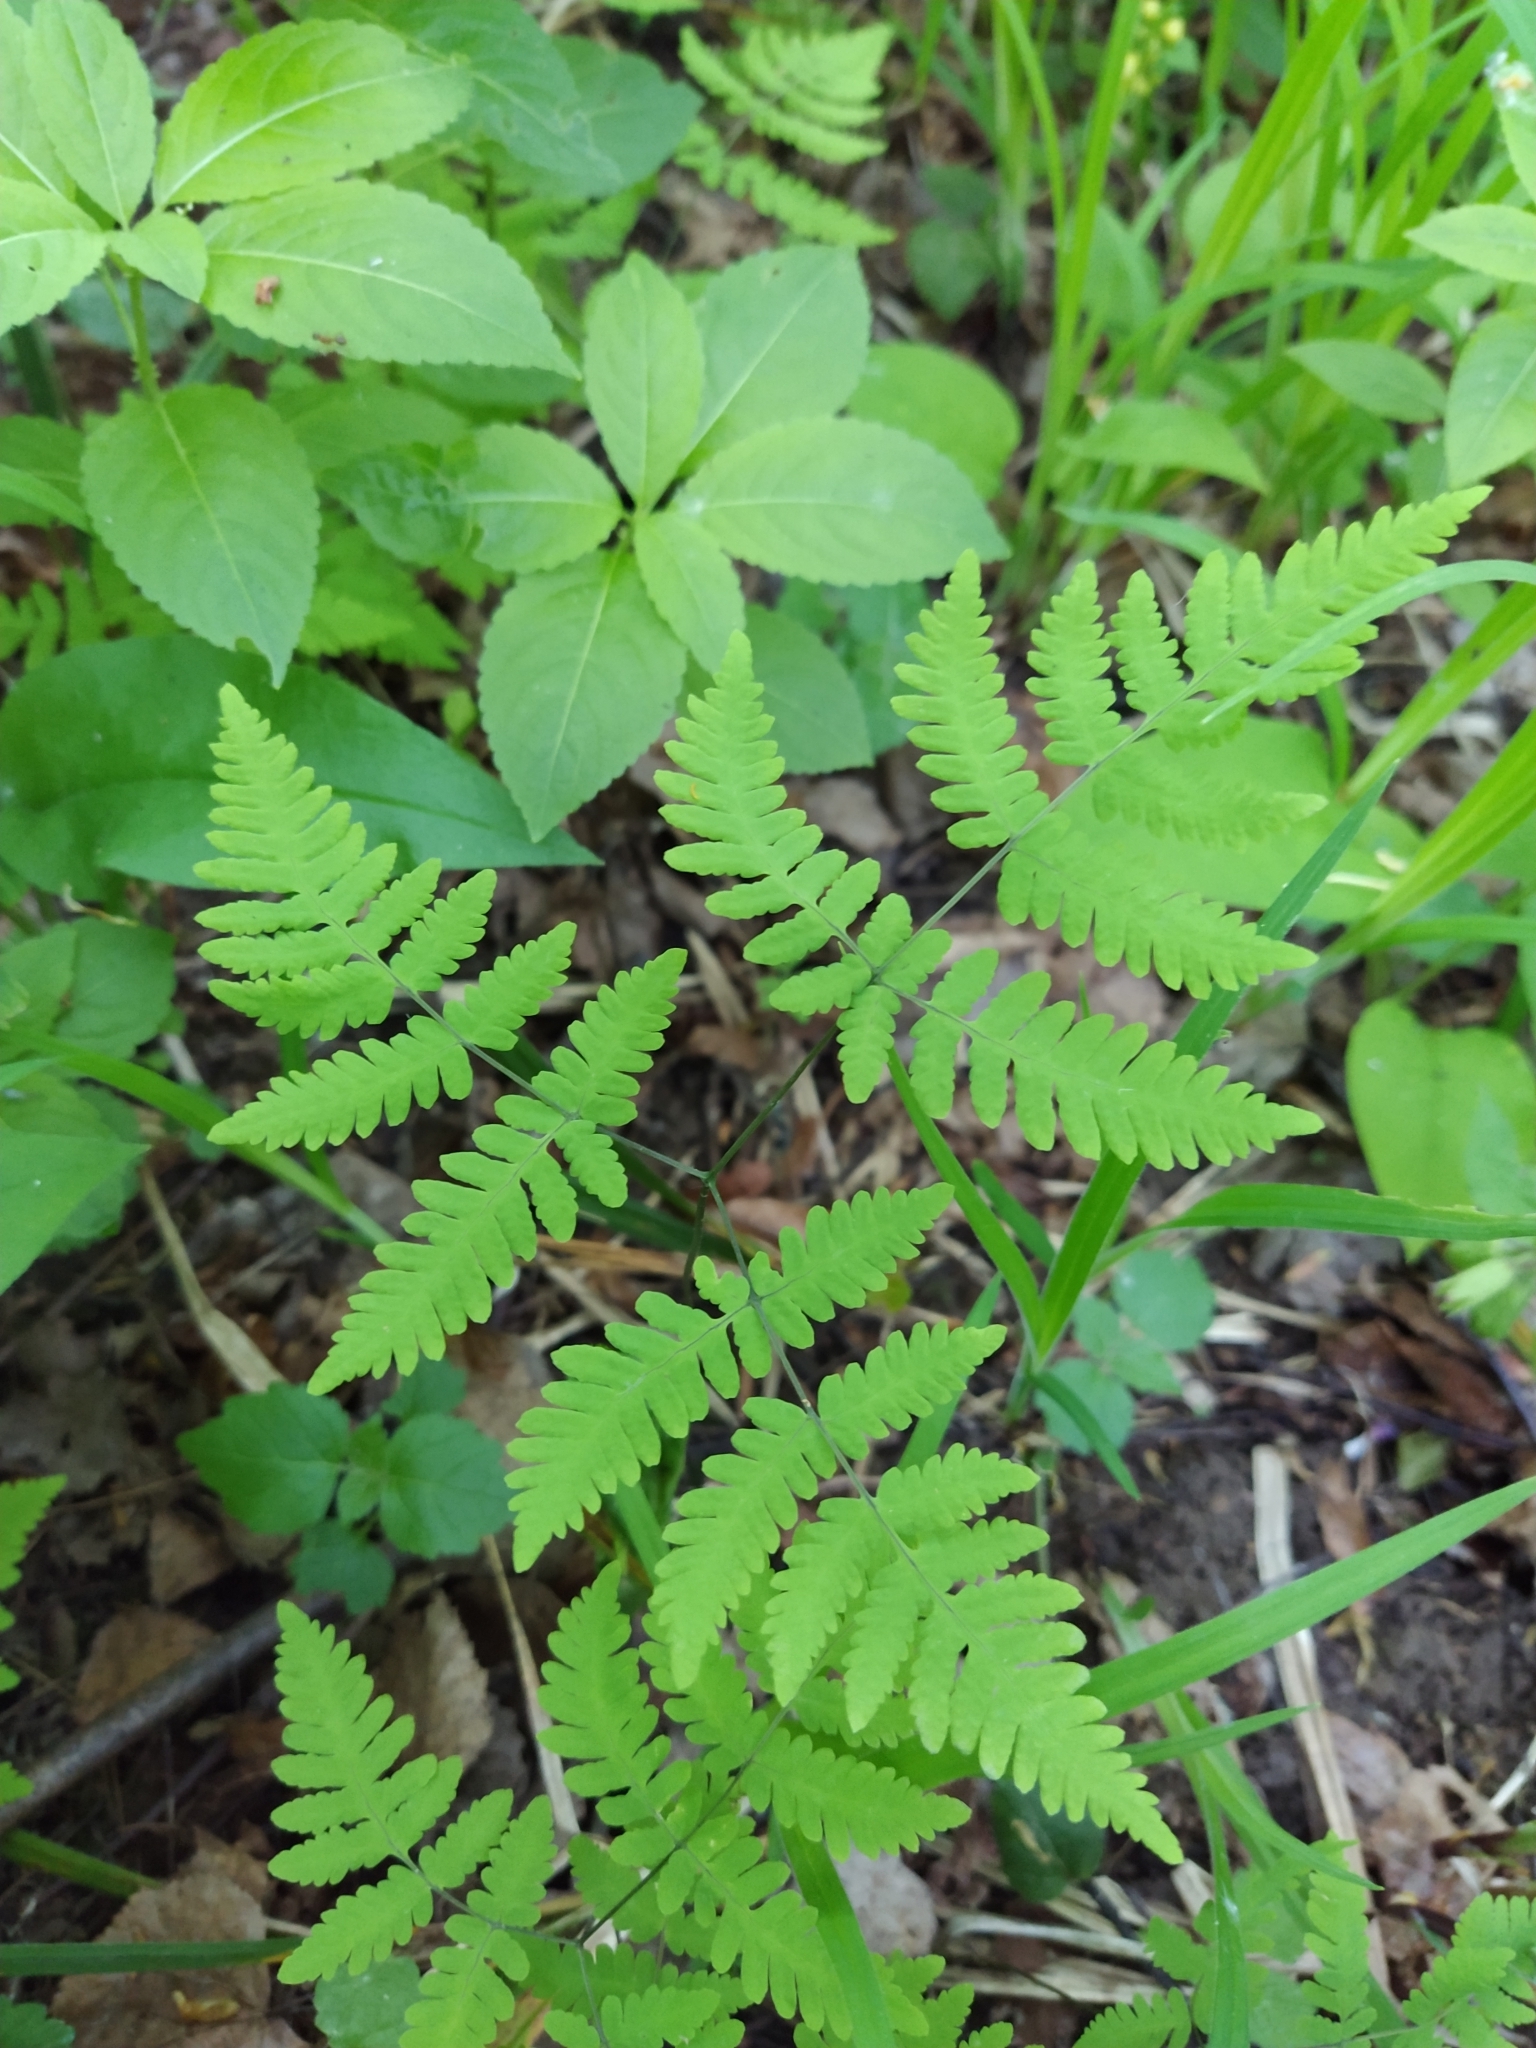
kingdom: Plantae
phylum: Tracheophyta
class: Polypodiopsida
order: Polypodiales
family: Cystopteridaceae
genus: Gymnocarpium
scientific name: Gymnocarpium dryopteris
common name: Oak fern
